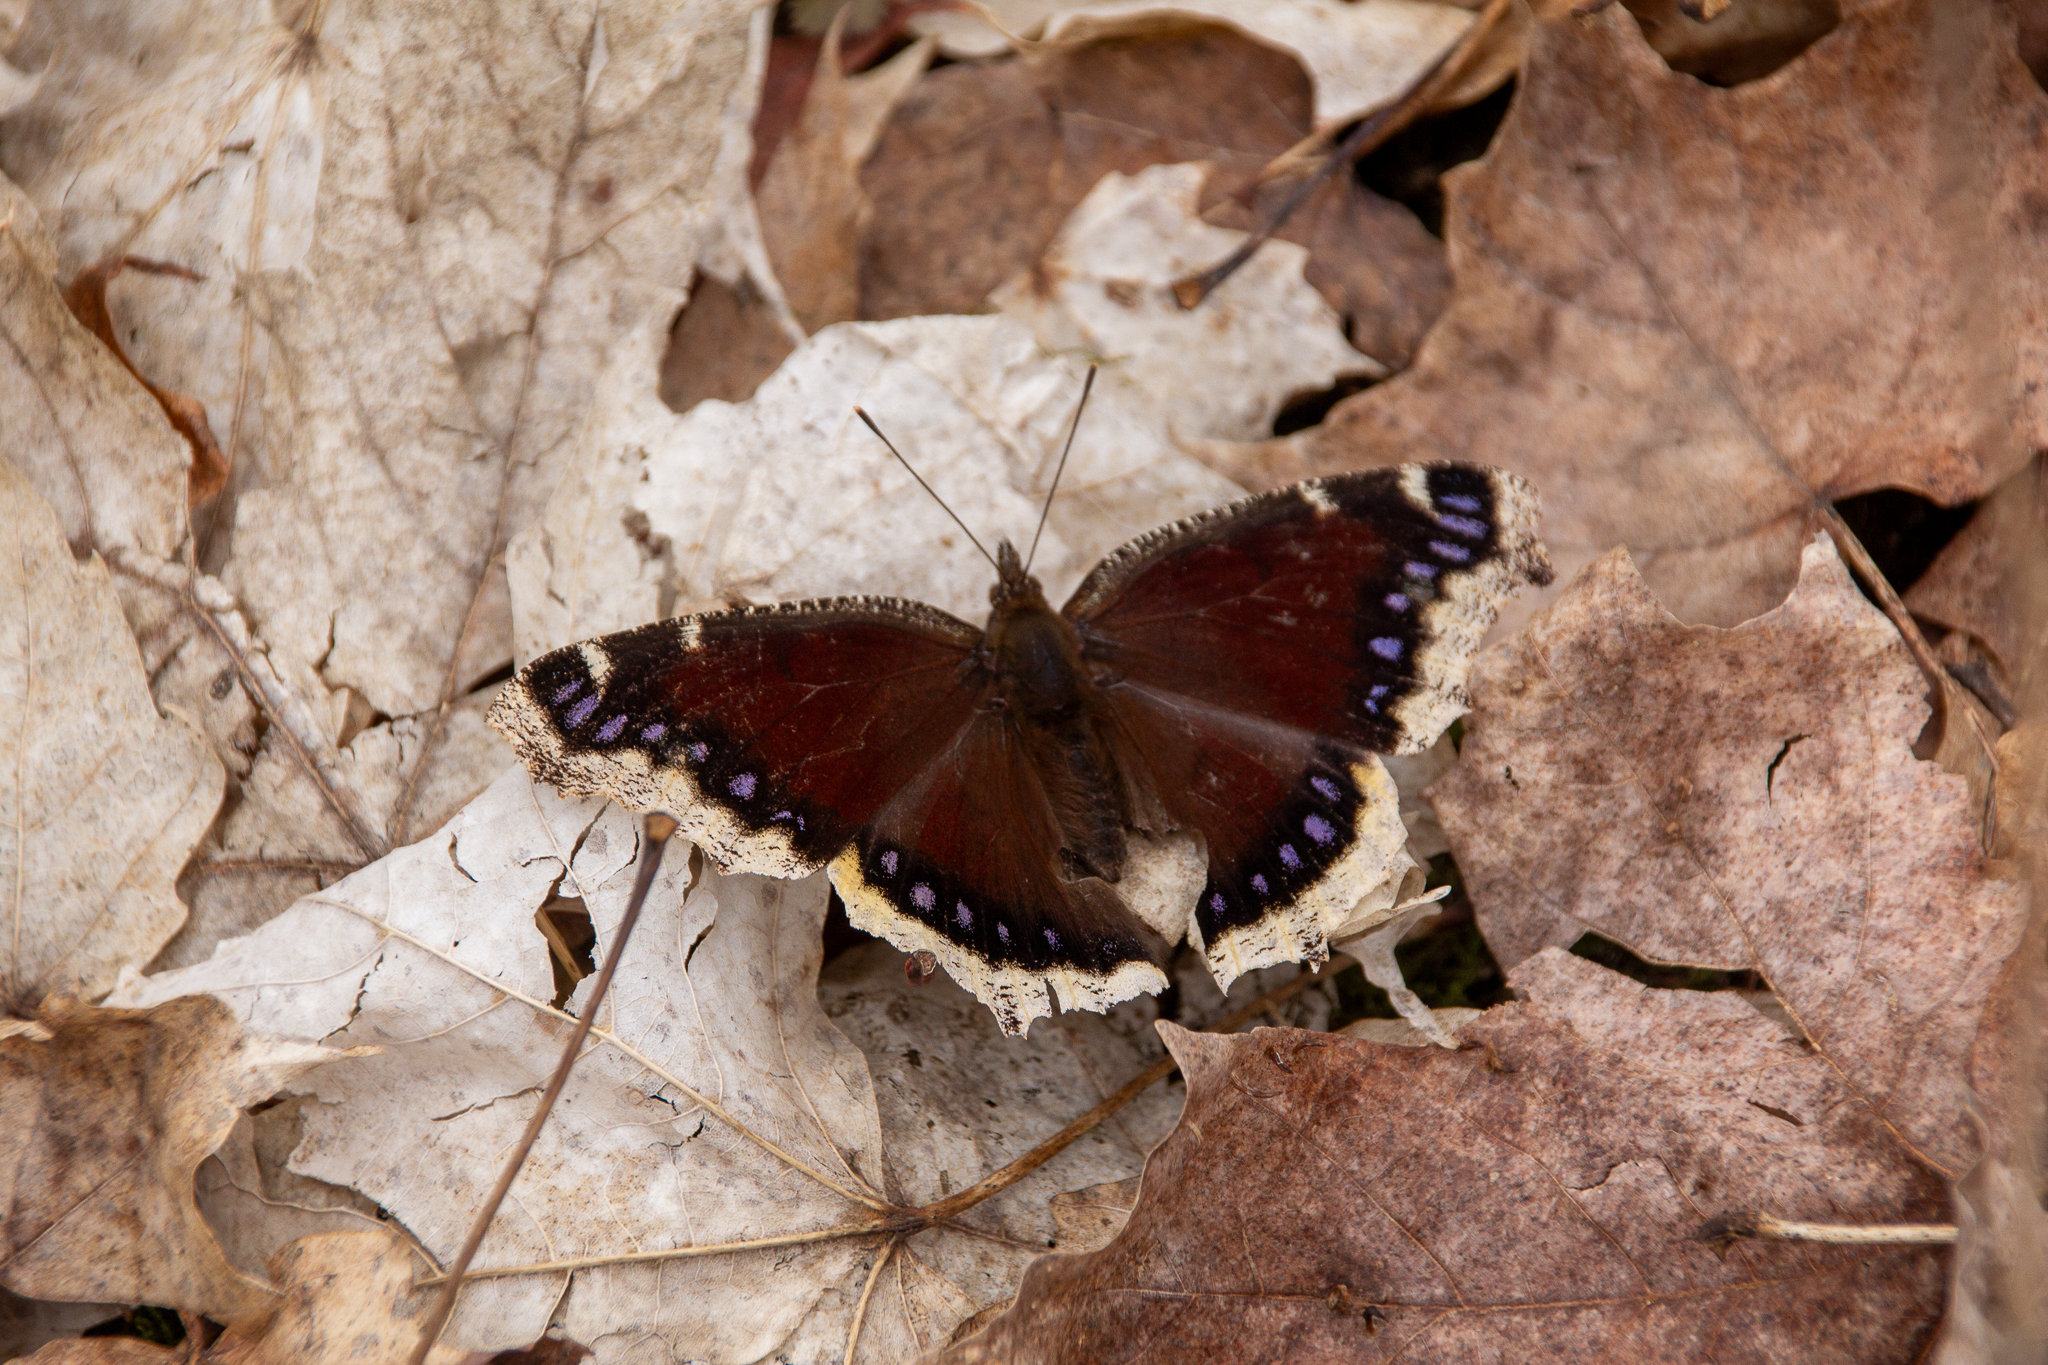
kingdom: Animalia
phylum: Arthropoda
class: Insecta
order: Lepidoptera
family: Nymphalidae
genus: Nymphalis
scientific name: Nymphalis antiopa
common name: Camberwell beauty
